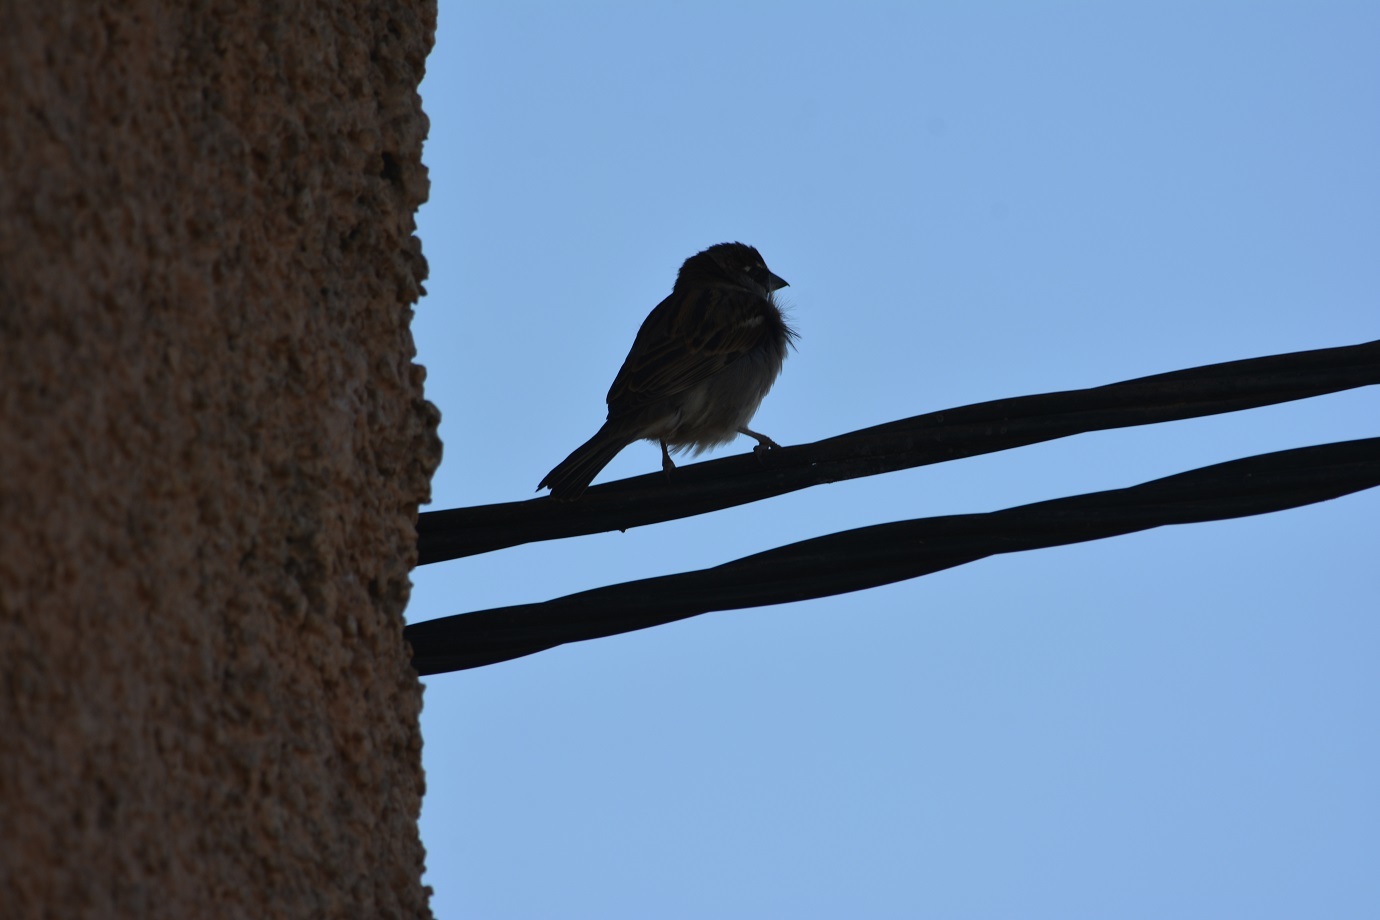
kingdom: Animalia
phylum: Chordata
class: Aves
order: Passeriformes
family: Passeridae
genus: Passer
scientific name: Passer domesticus
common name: House sparrow
